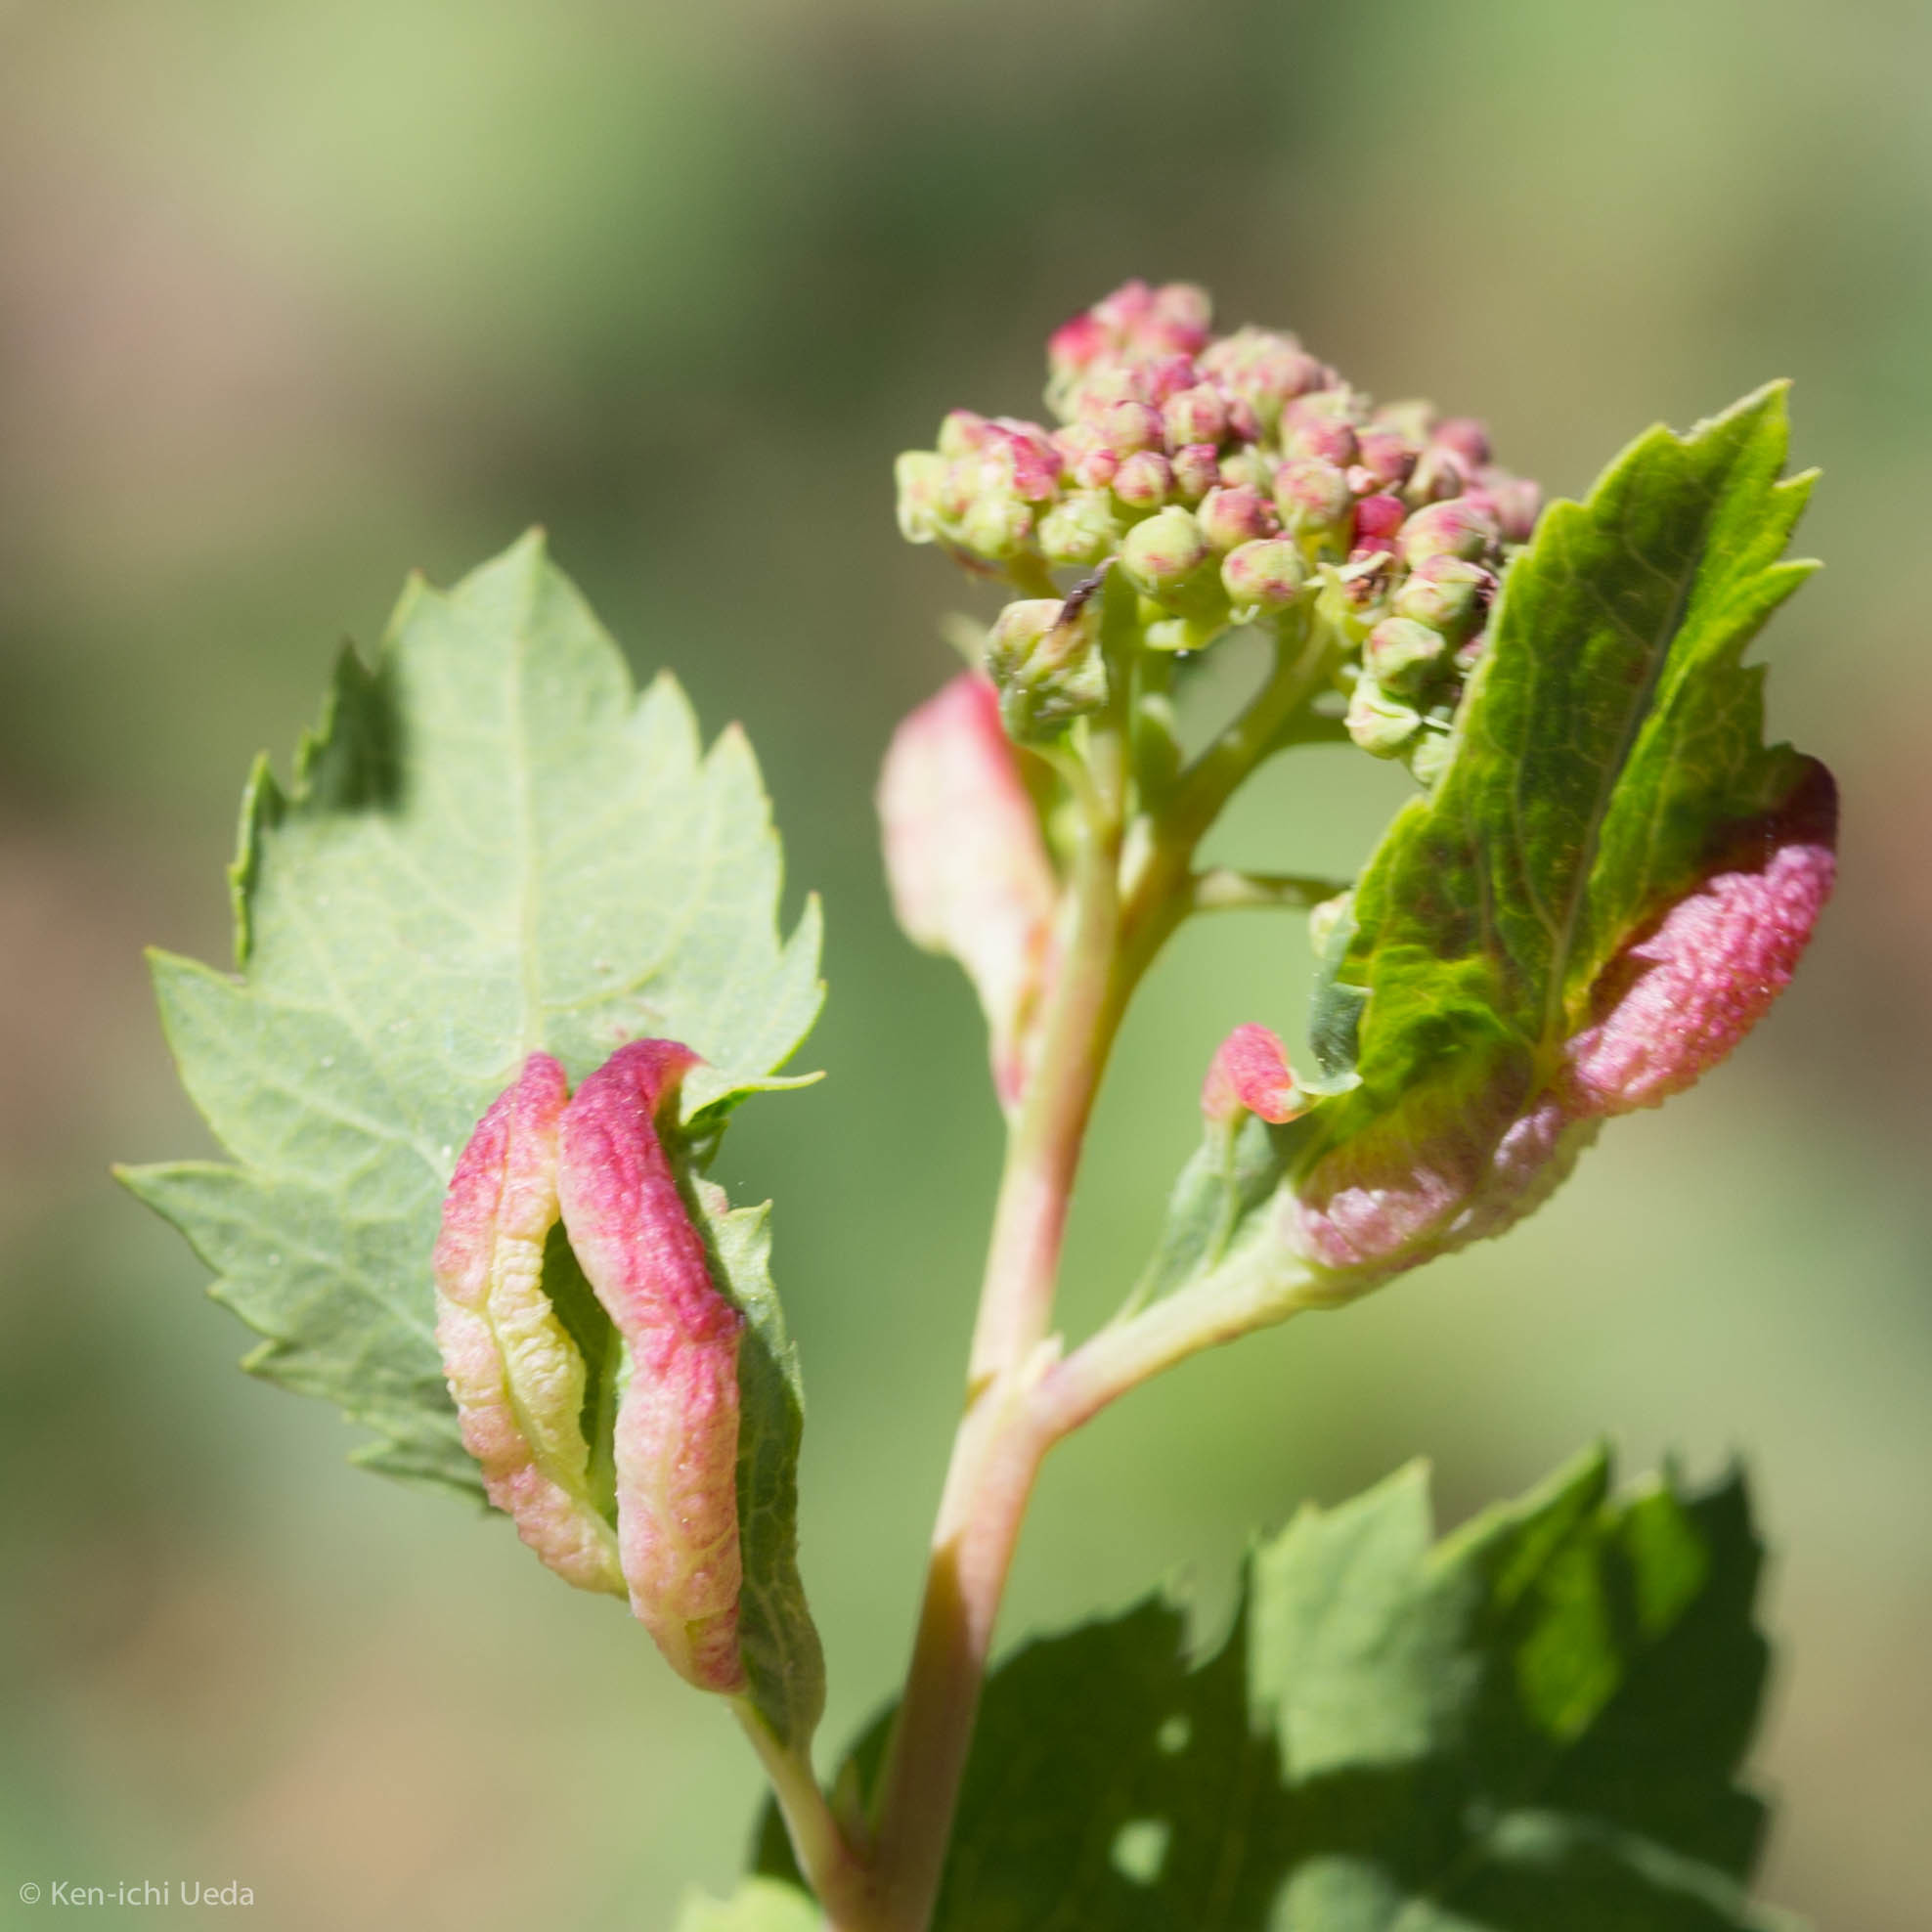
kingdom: Animalia
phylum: Arthropoda
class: Insecta
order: Diptera
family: Cecidomyiidae
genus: Dasineura
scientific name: Dasineura salicifoliae
